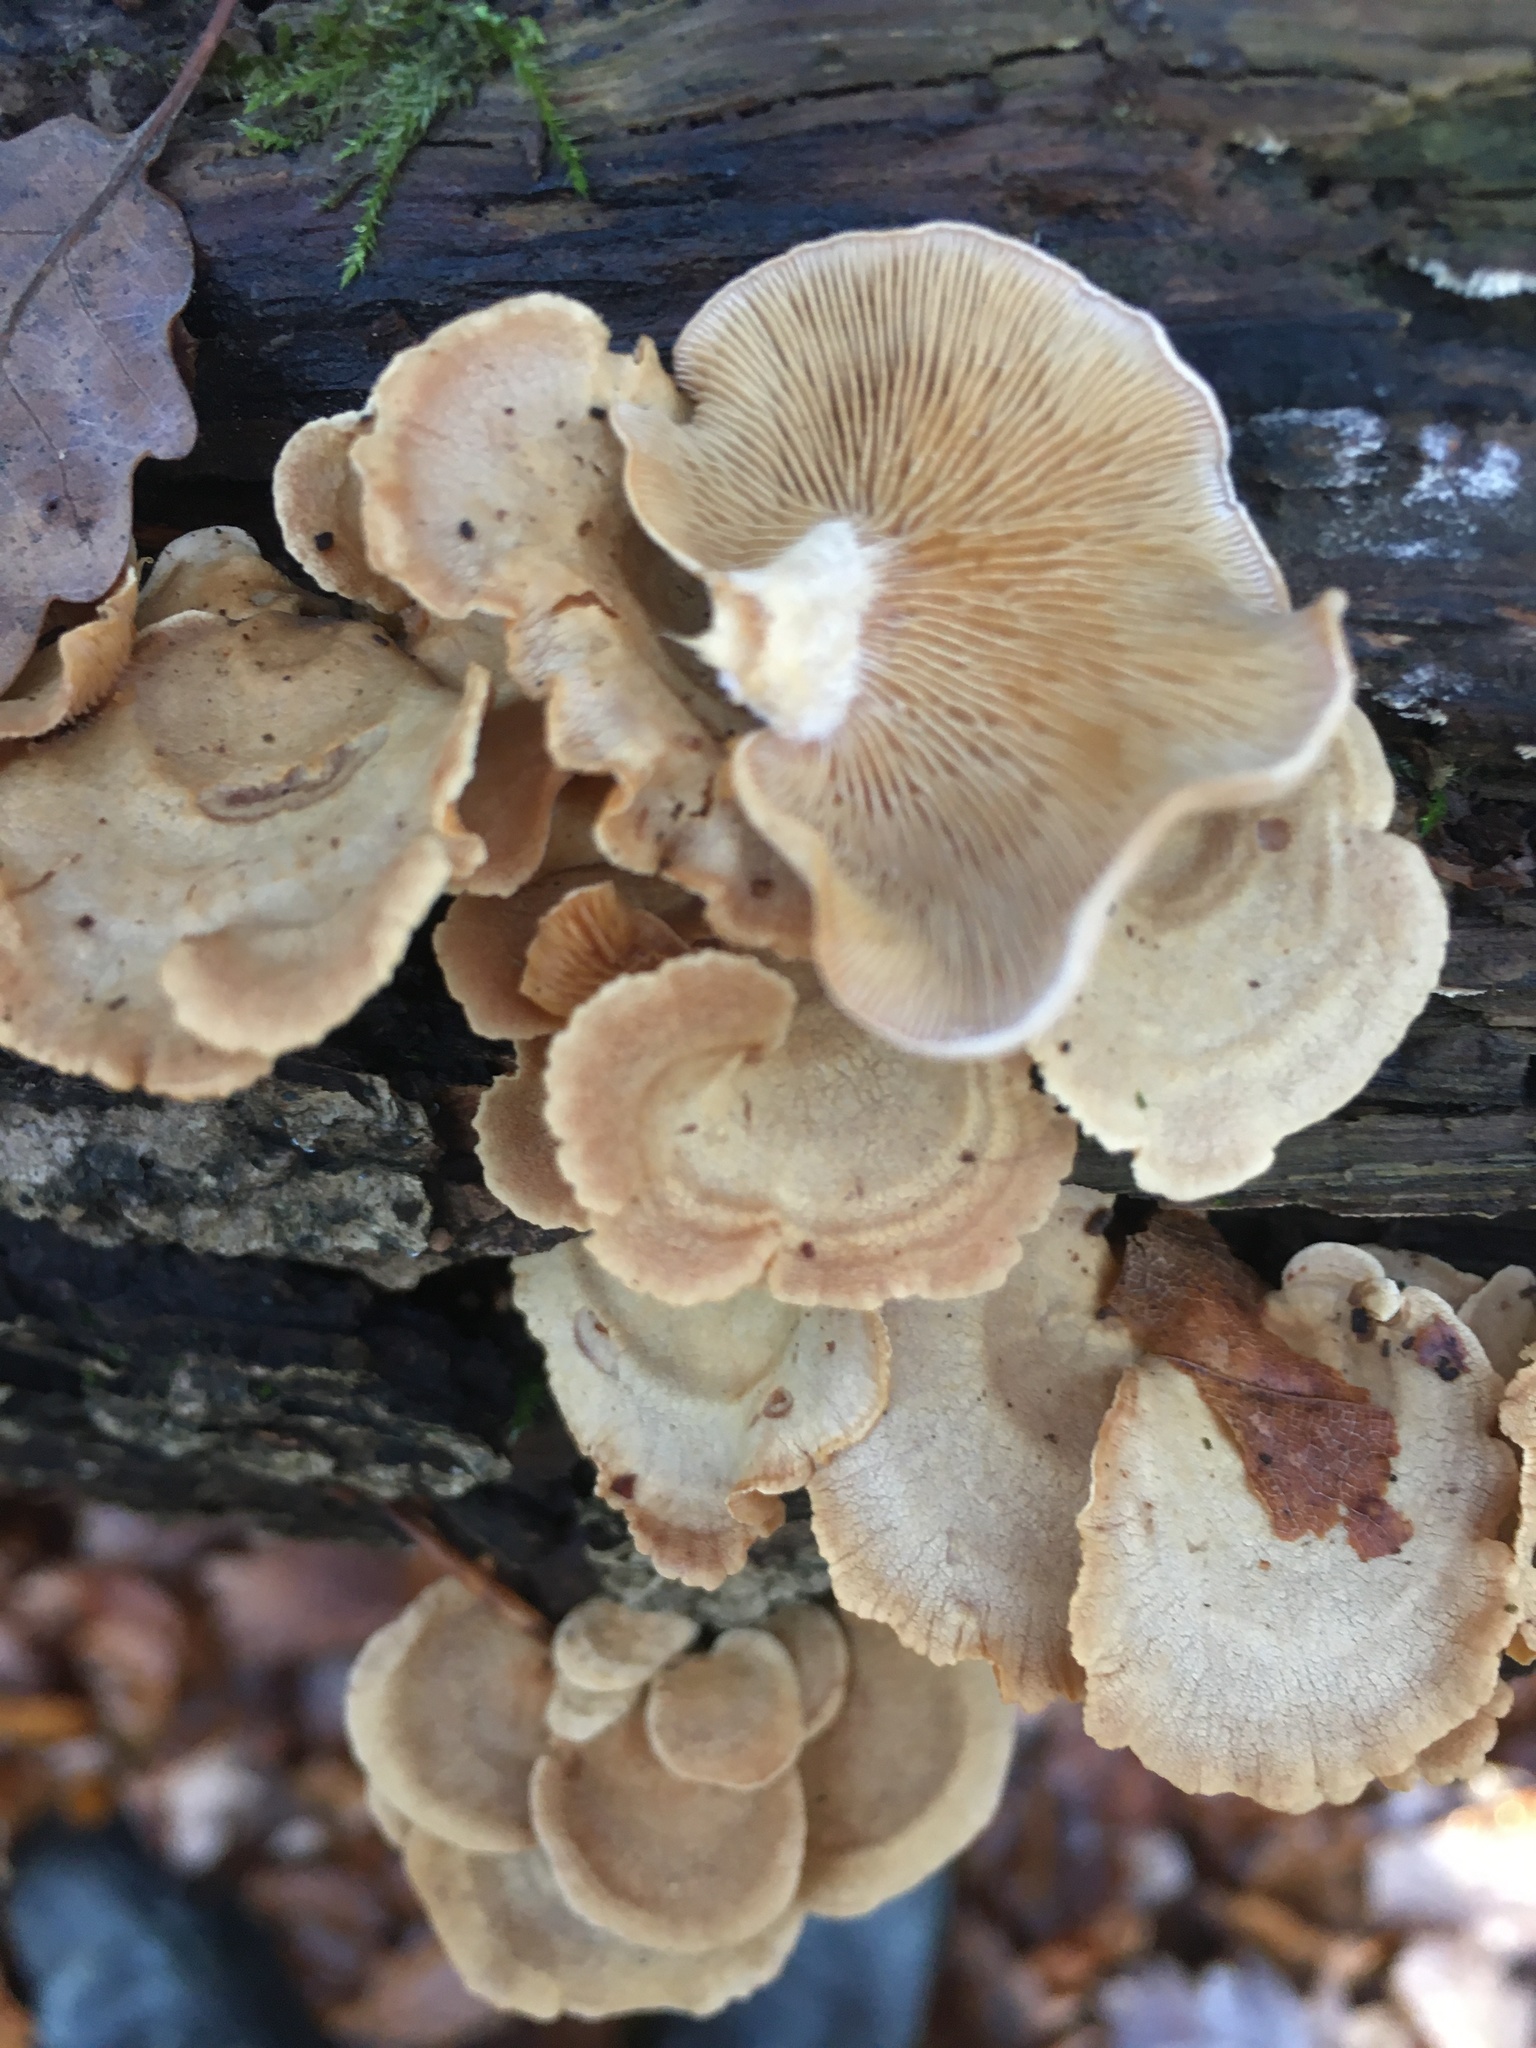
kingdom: Fungi
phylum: Basidiomycota
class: Agaricomycetes
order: Agaricales
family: Mycenaceae
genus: Panellus
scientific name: Panellus stipticus
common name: Bitter oysterling
